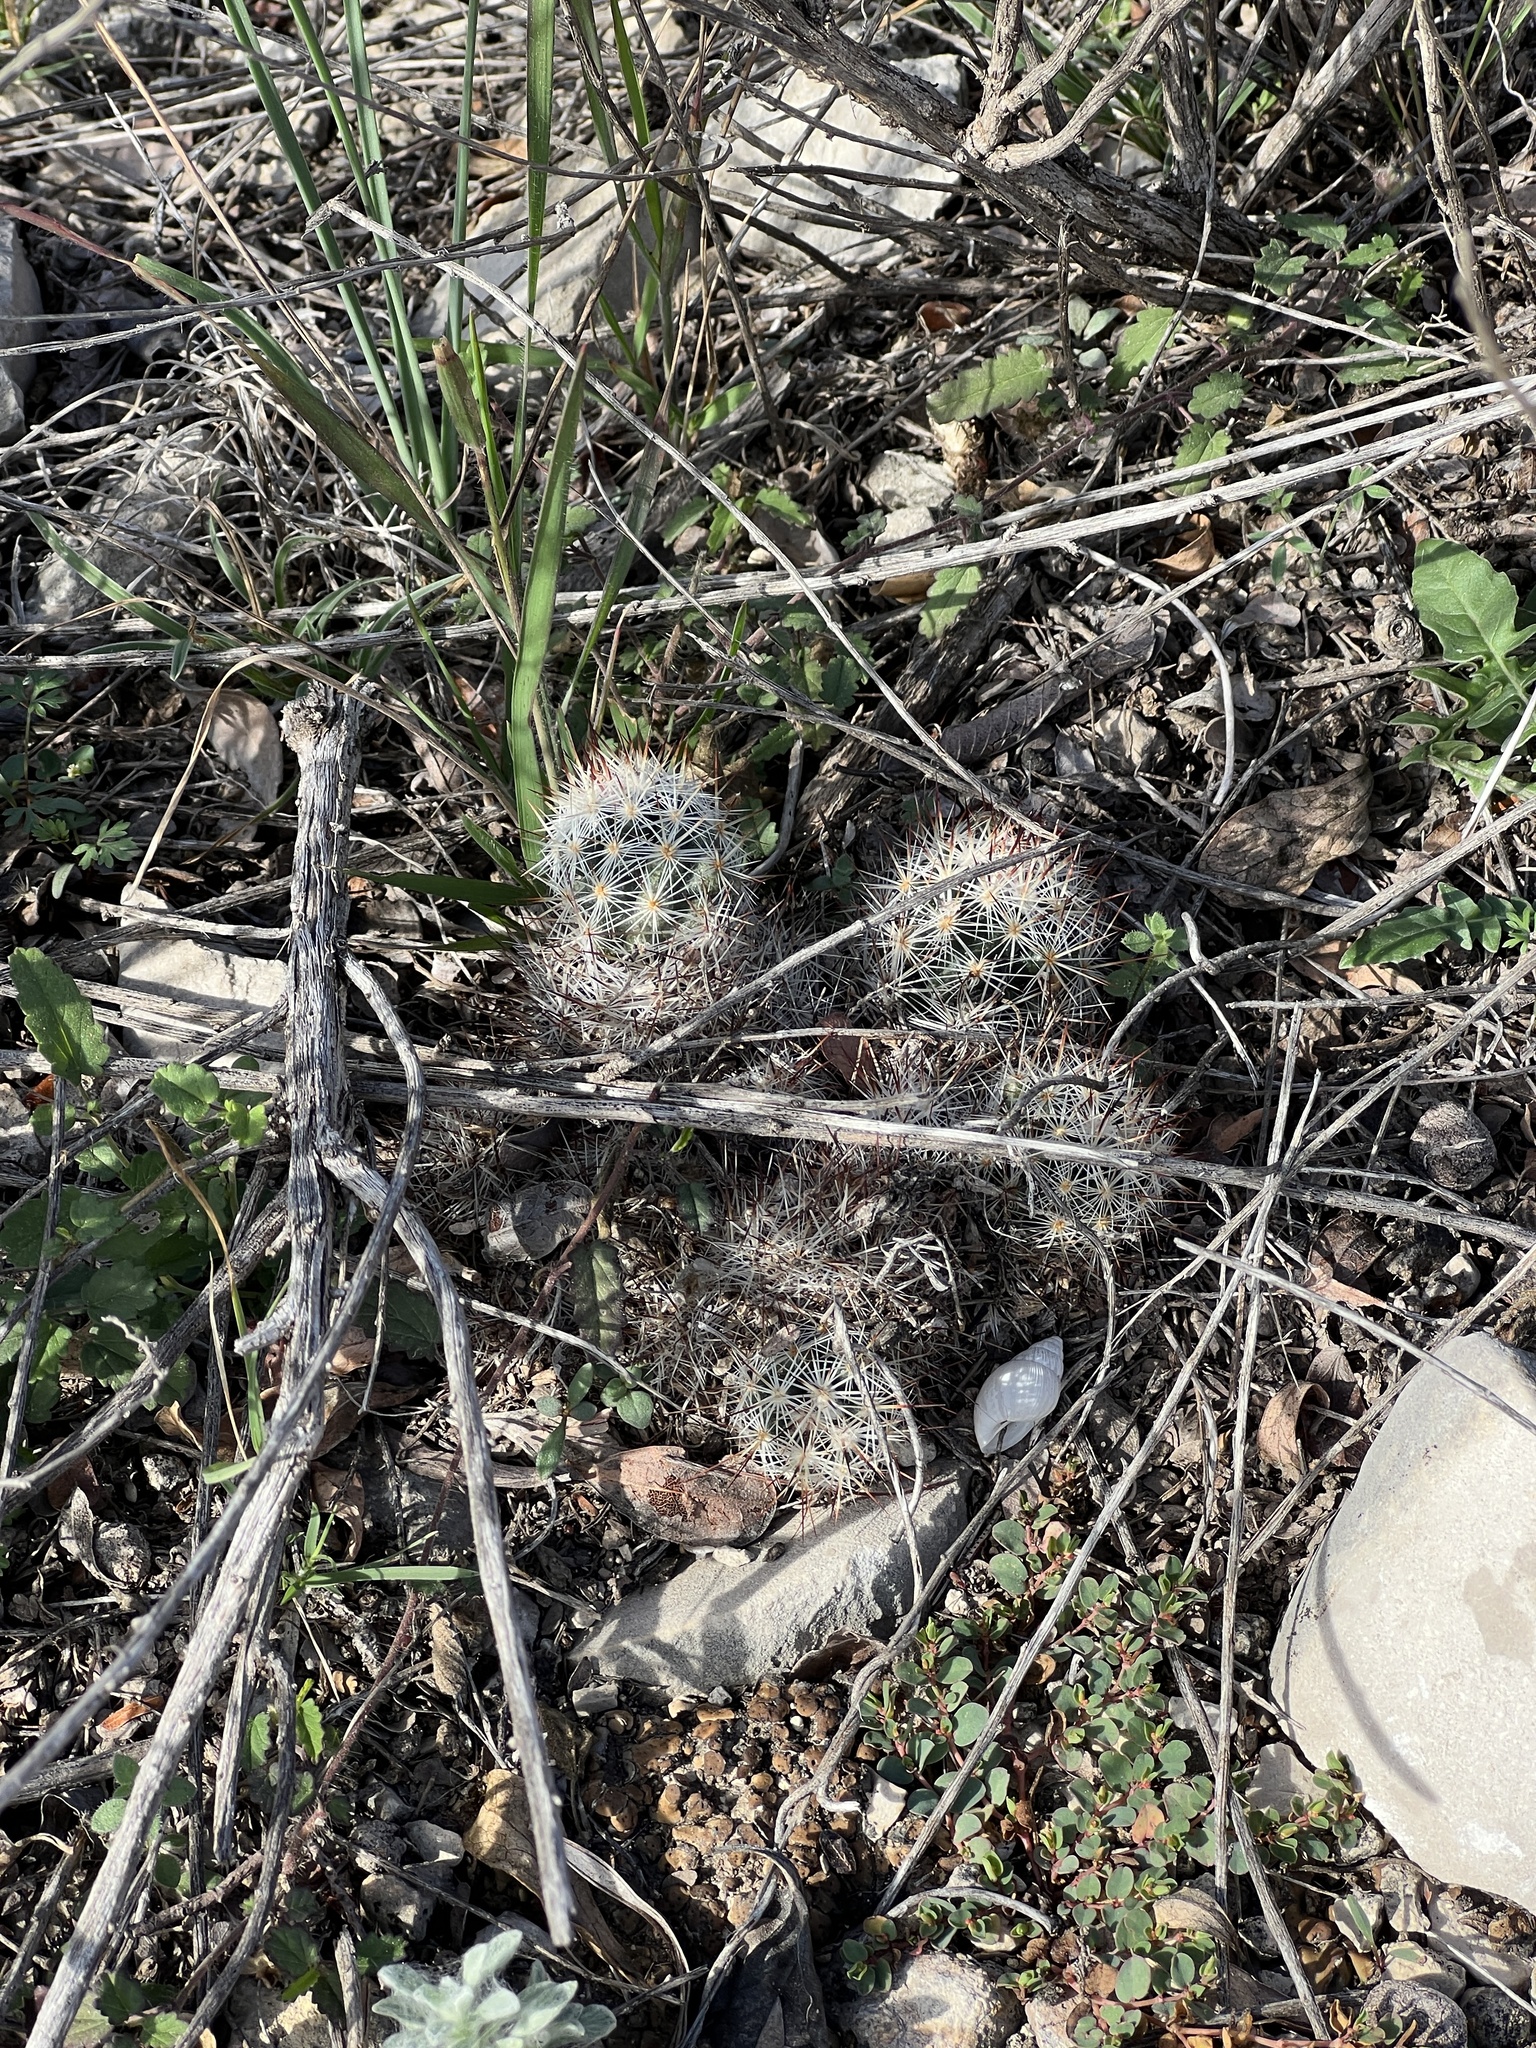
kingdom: Plantae
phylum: Tracheophyta
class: Magnoliopsida
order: Caryophyllales
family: Cactaceae
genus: Pelecyphora
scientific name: Pelecyphora emskoetteriana
